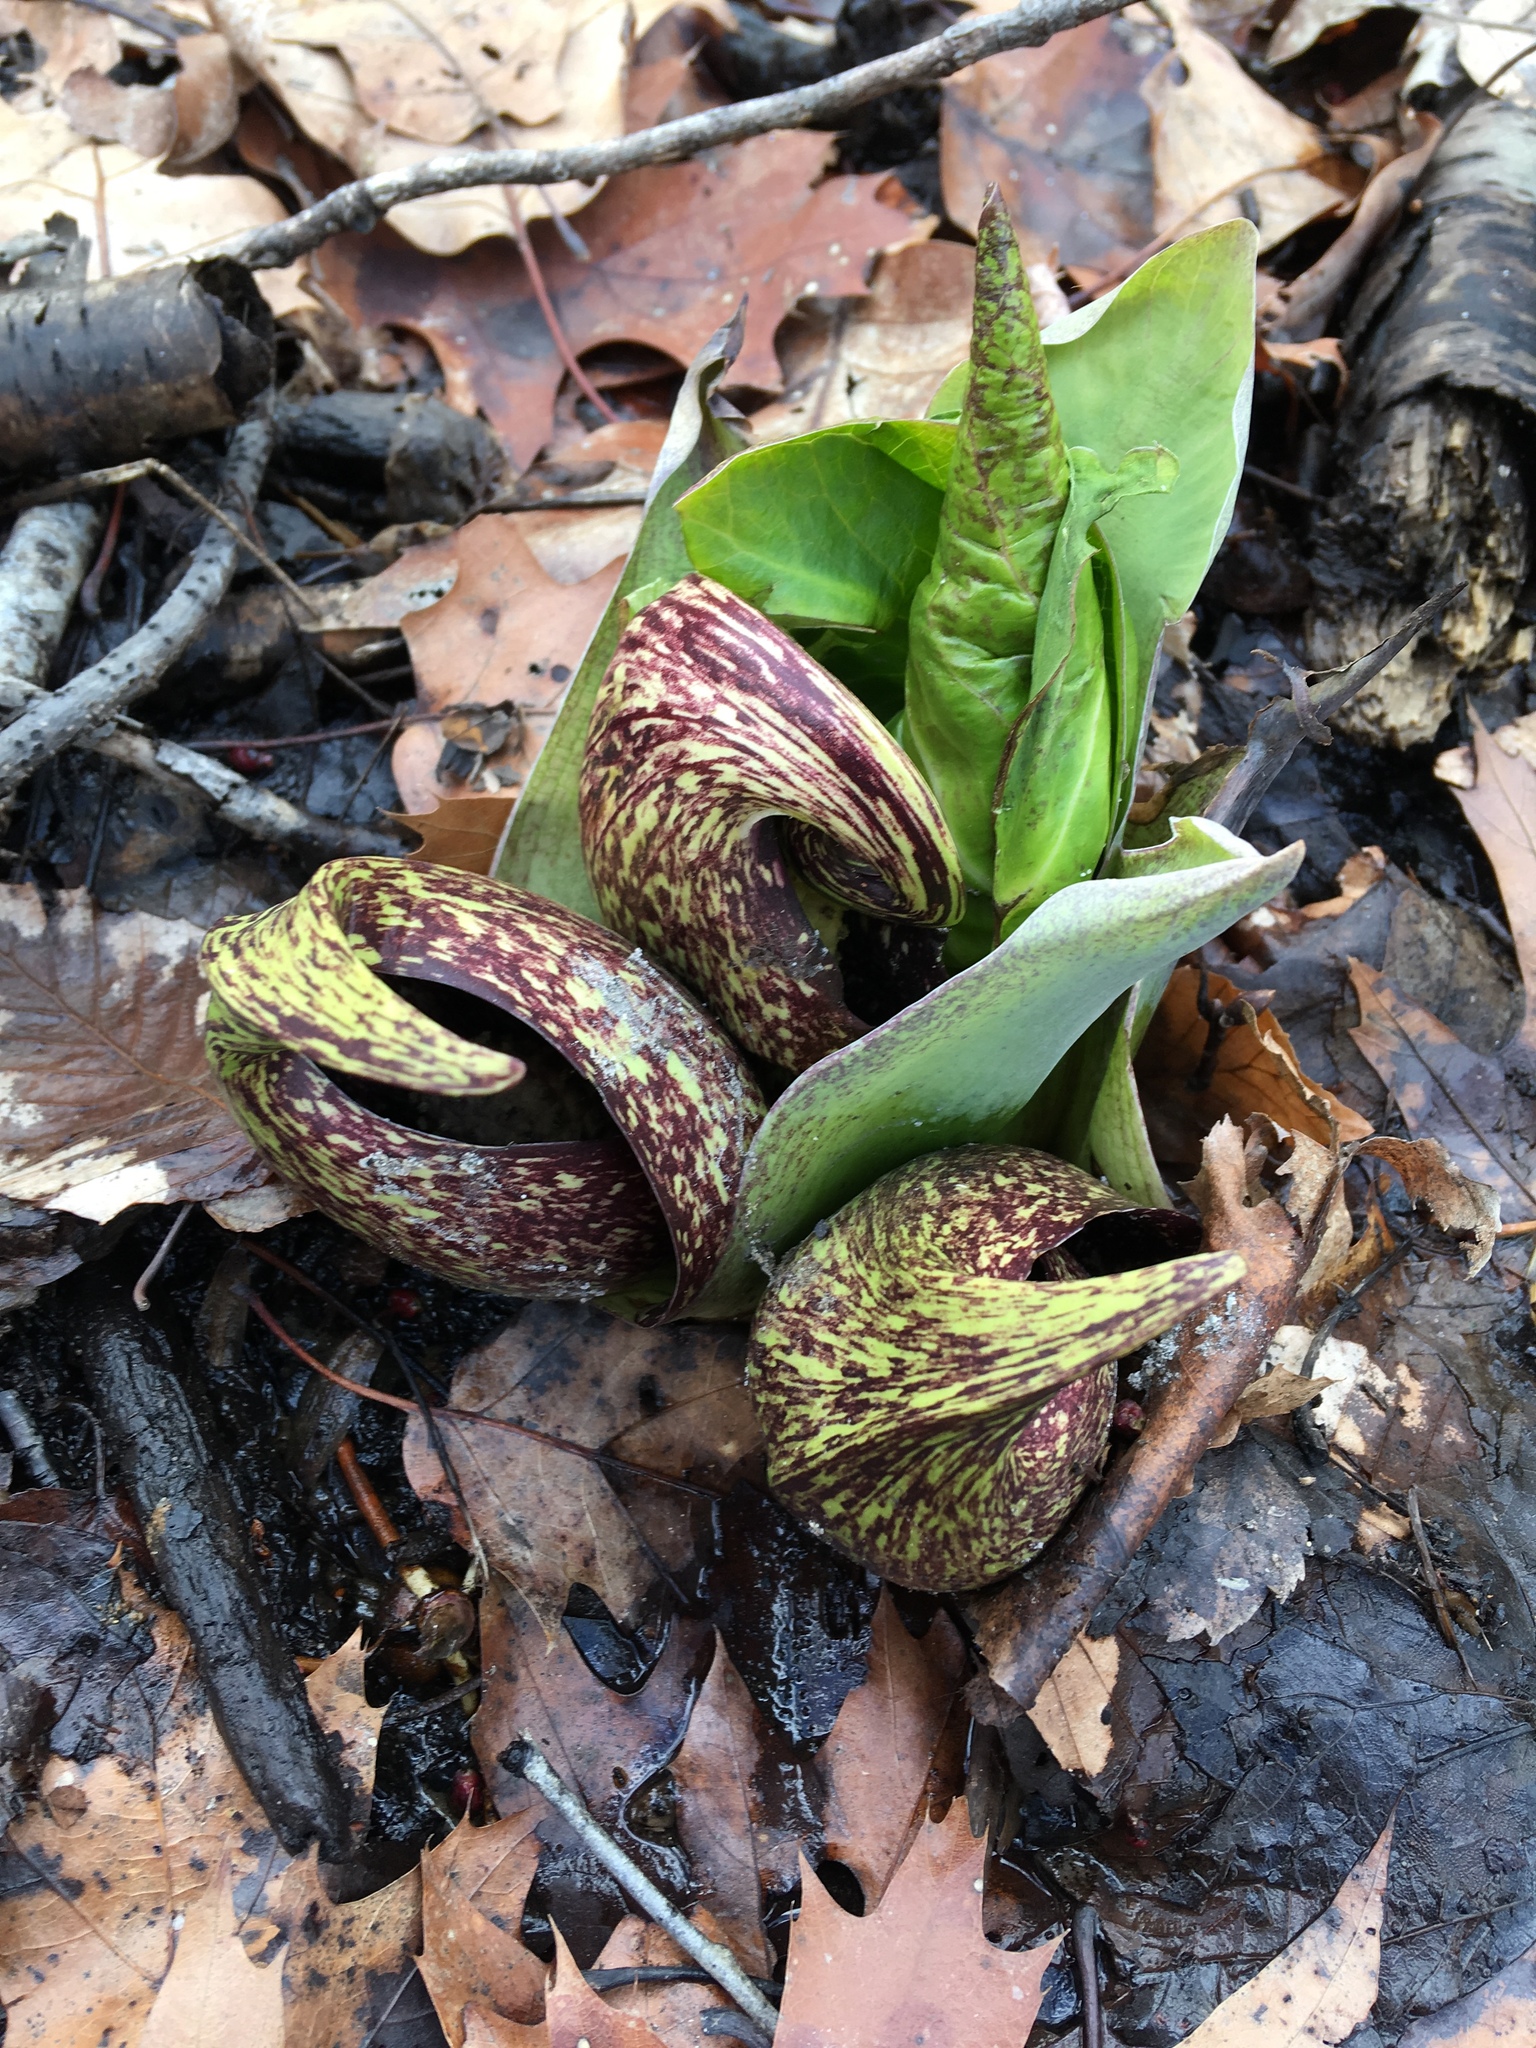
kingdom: Plantae
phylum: Tracheophyta
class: Liliopsida
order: Alismatales
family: Araceae
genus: Symplocarpus
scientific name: Symplocarpus foetidus
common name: Eastern skunk cabbage
